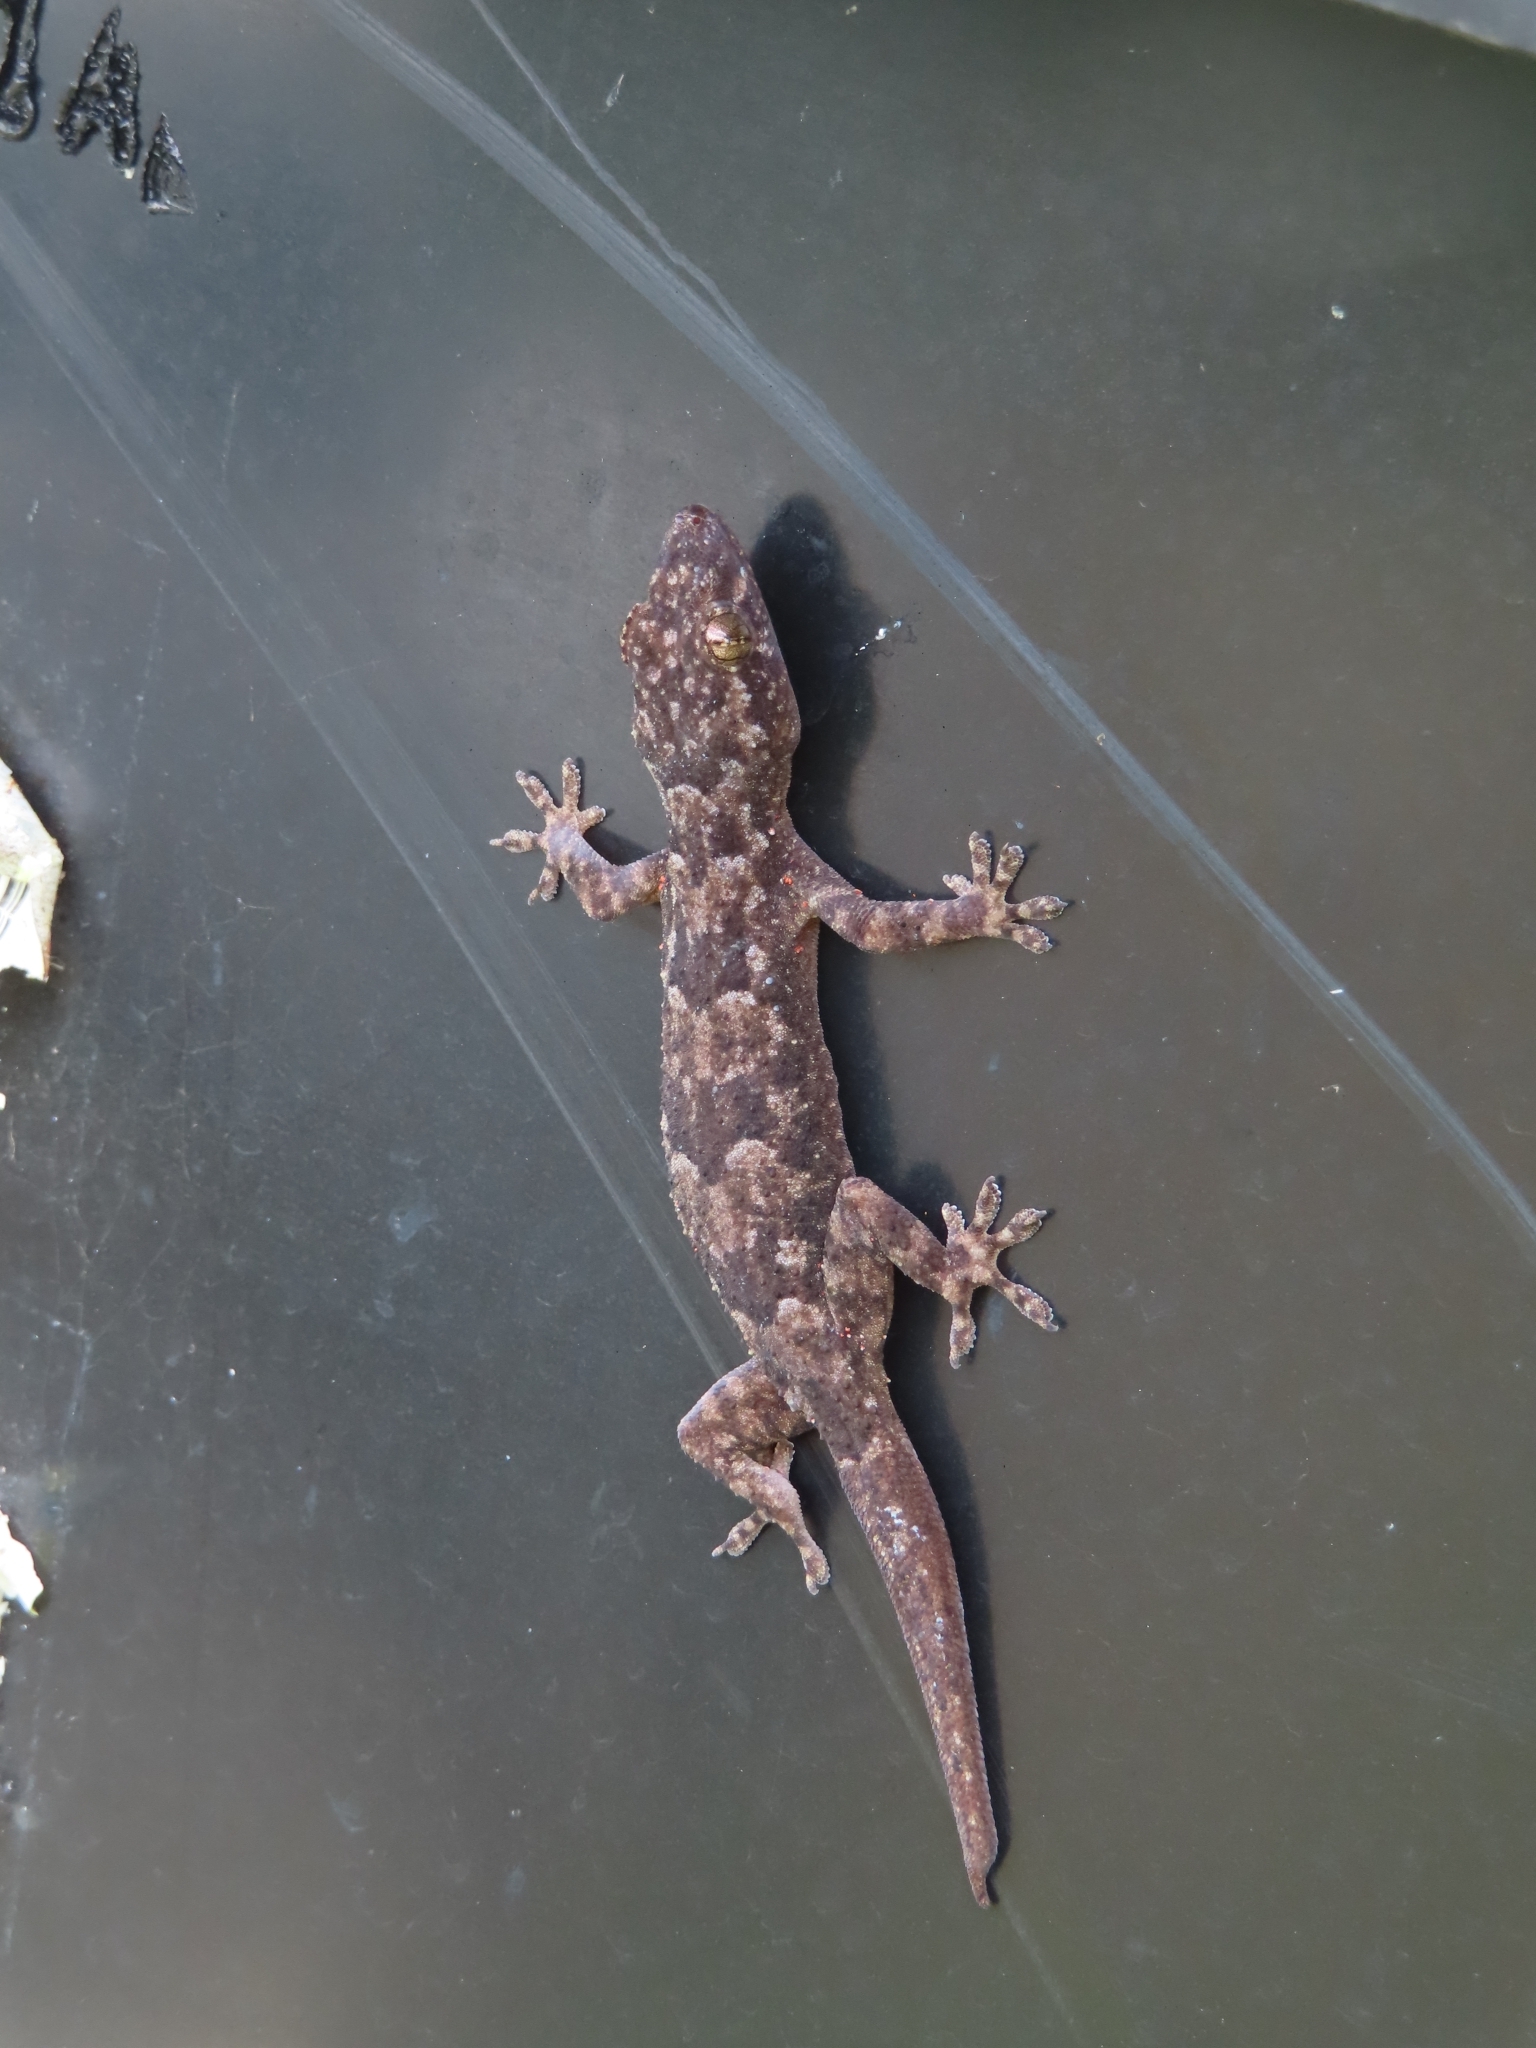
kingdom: Animalia
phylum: Chordata
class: Squamata
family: Gekkonidae
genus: Hemidactylus
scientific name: Hemidactylus mabouia
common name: House gecko
